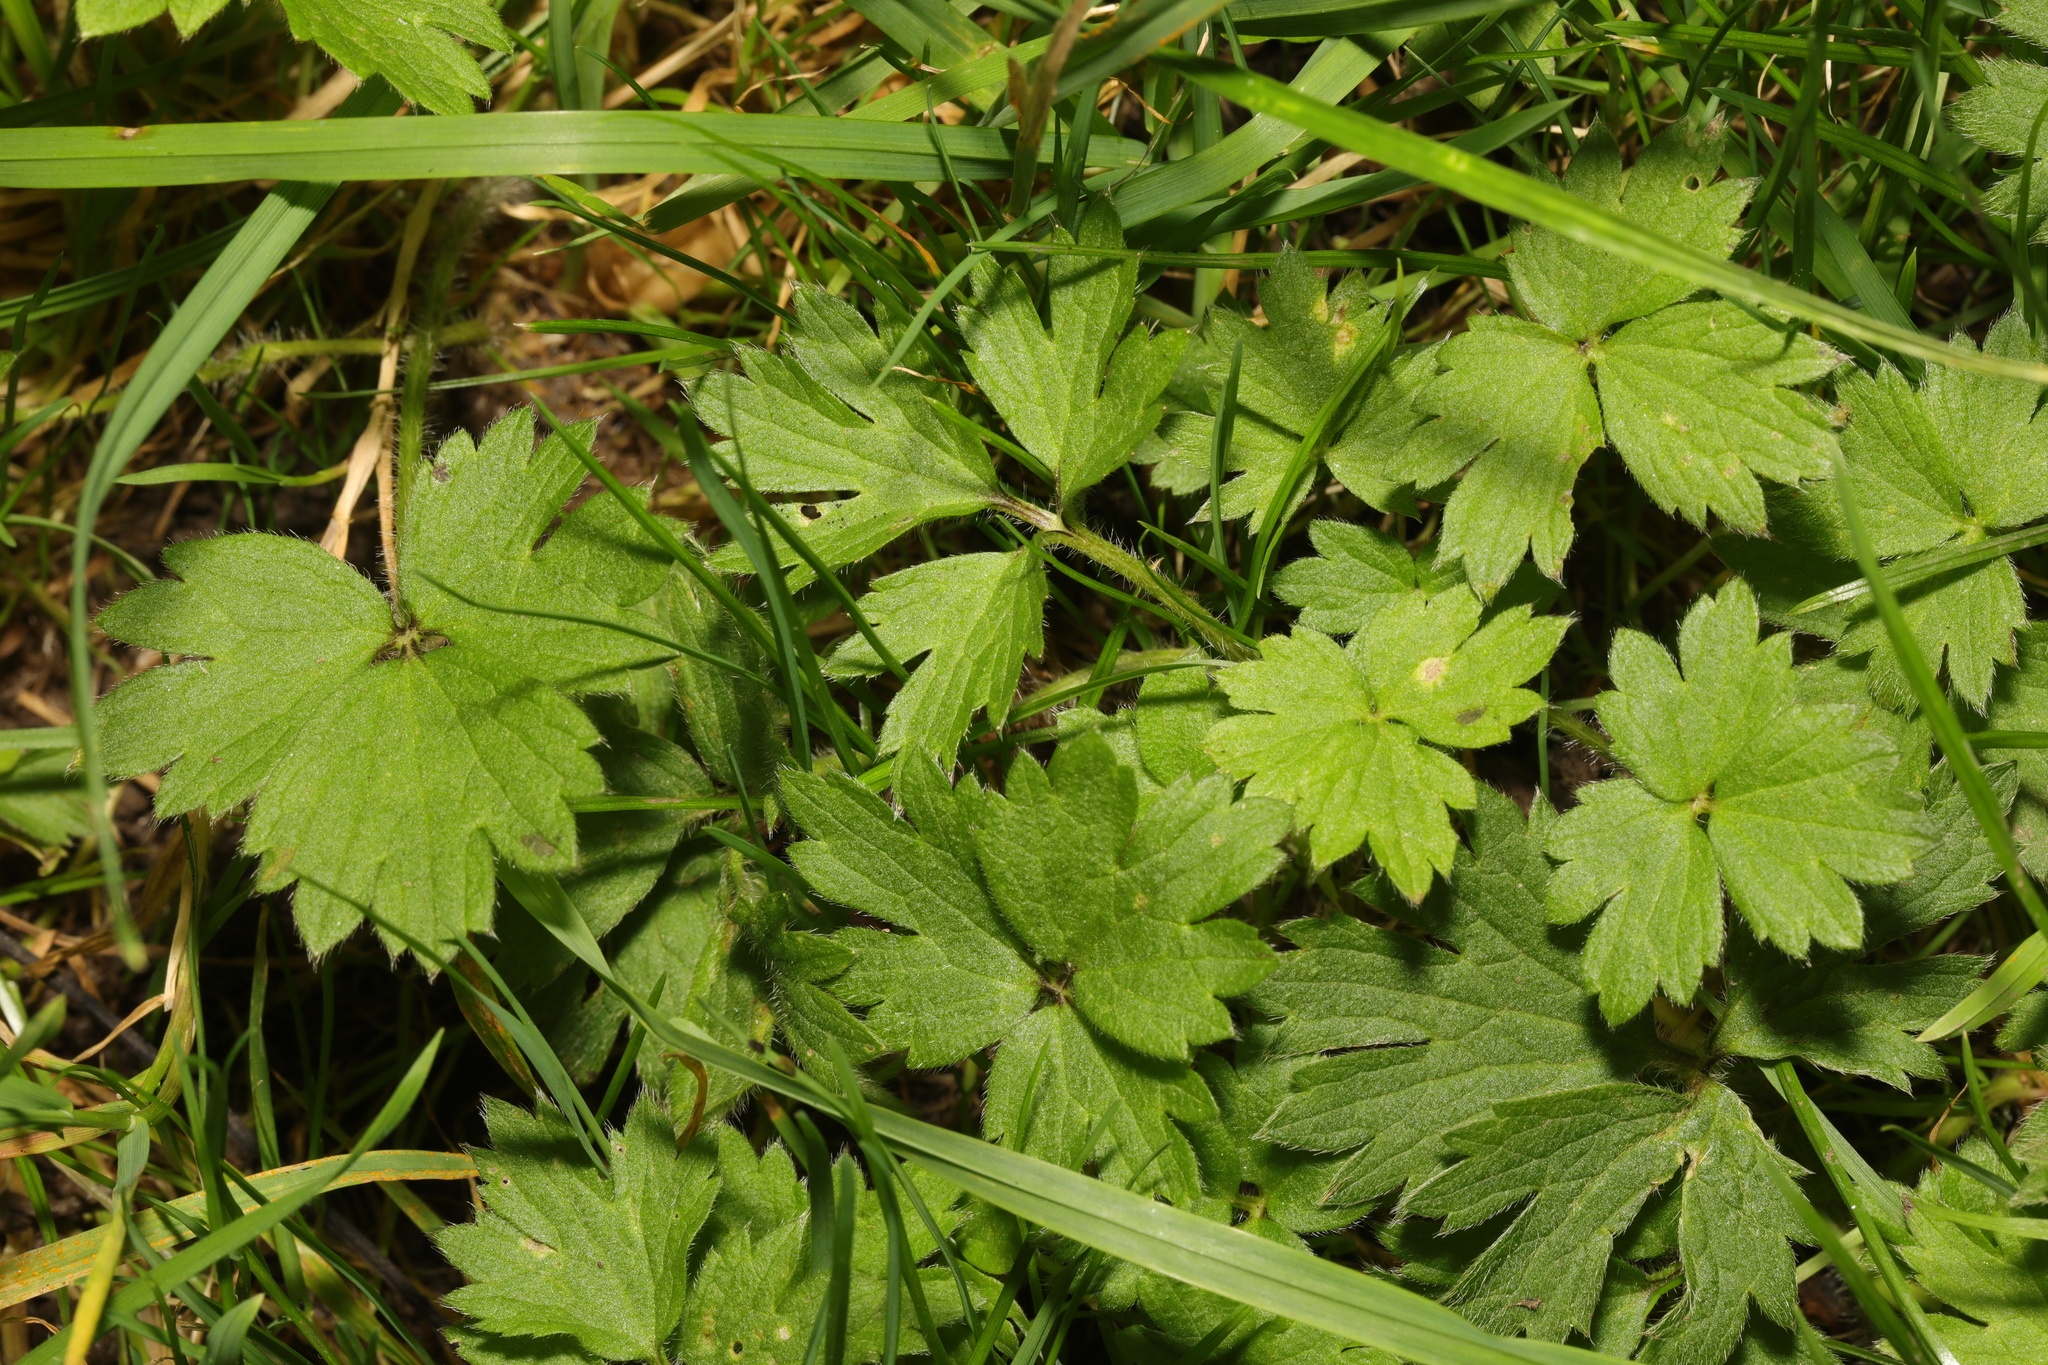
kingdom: Plantae
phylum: Tracheophyta
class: Magnoliopsida
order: Ranunculales
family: Ranunculaceae
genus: Ranunculus
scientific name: Ranunculus repens
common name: Creeping buttercup
